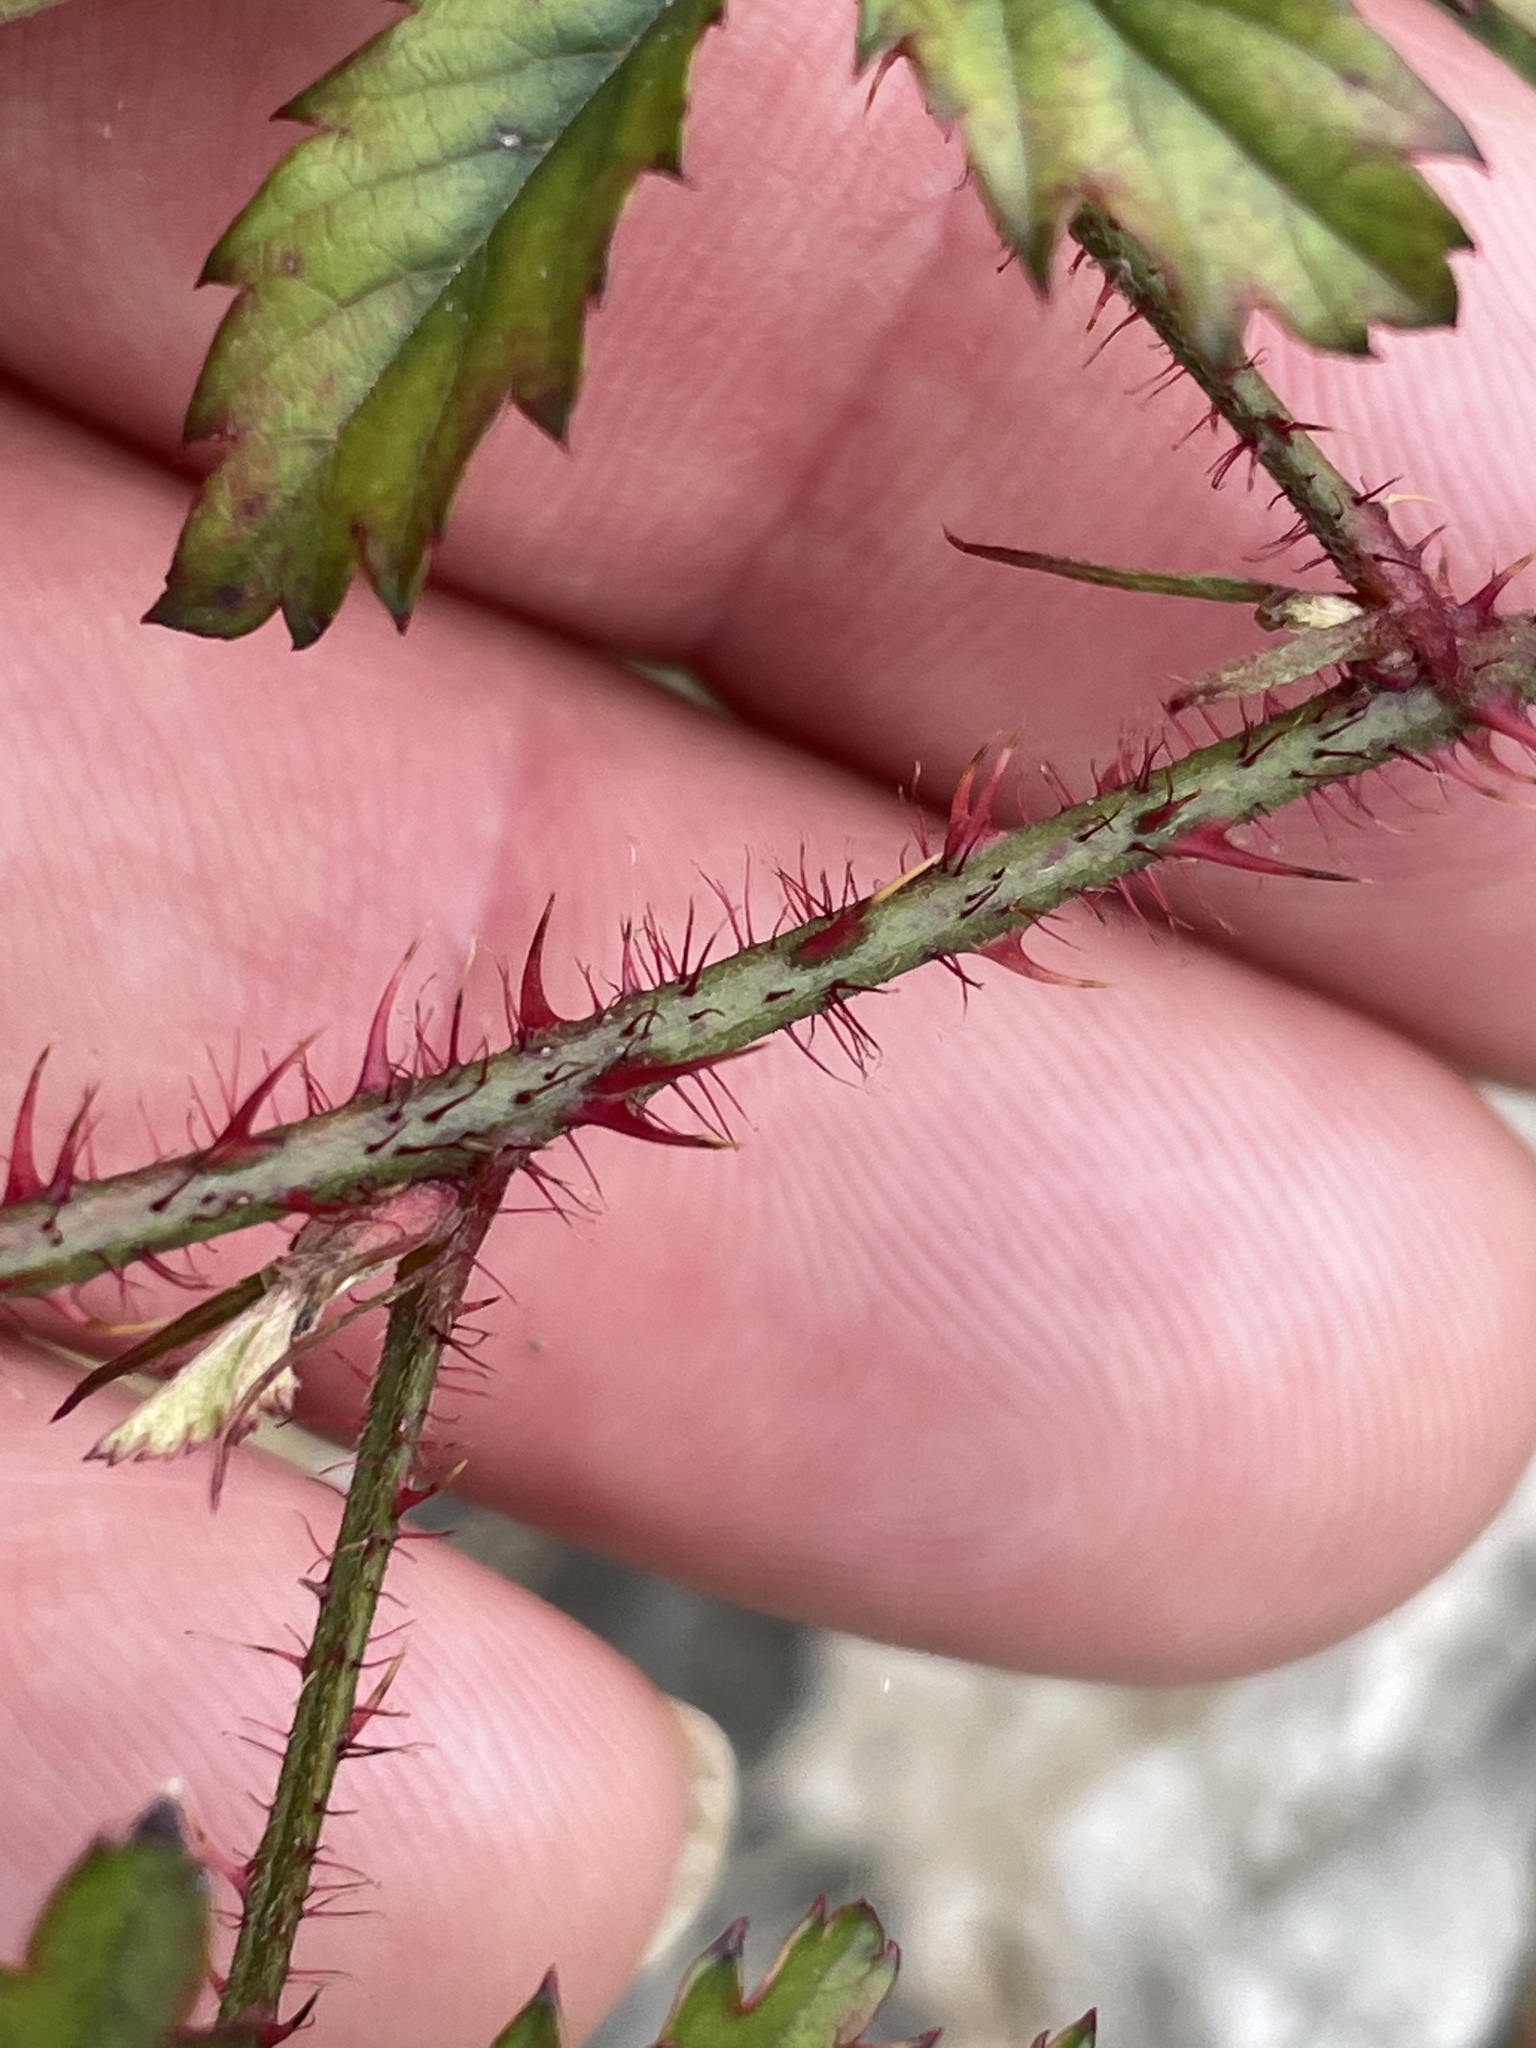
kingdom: Plantae
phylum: Tracheophyta
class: Magnoliopsida
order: Rosales
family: Rosaceae
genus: Rubus
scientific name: Rubus trivialis
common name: Southern dewberry
